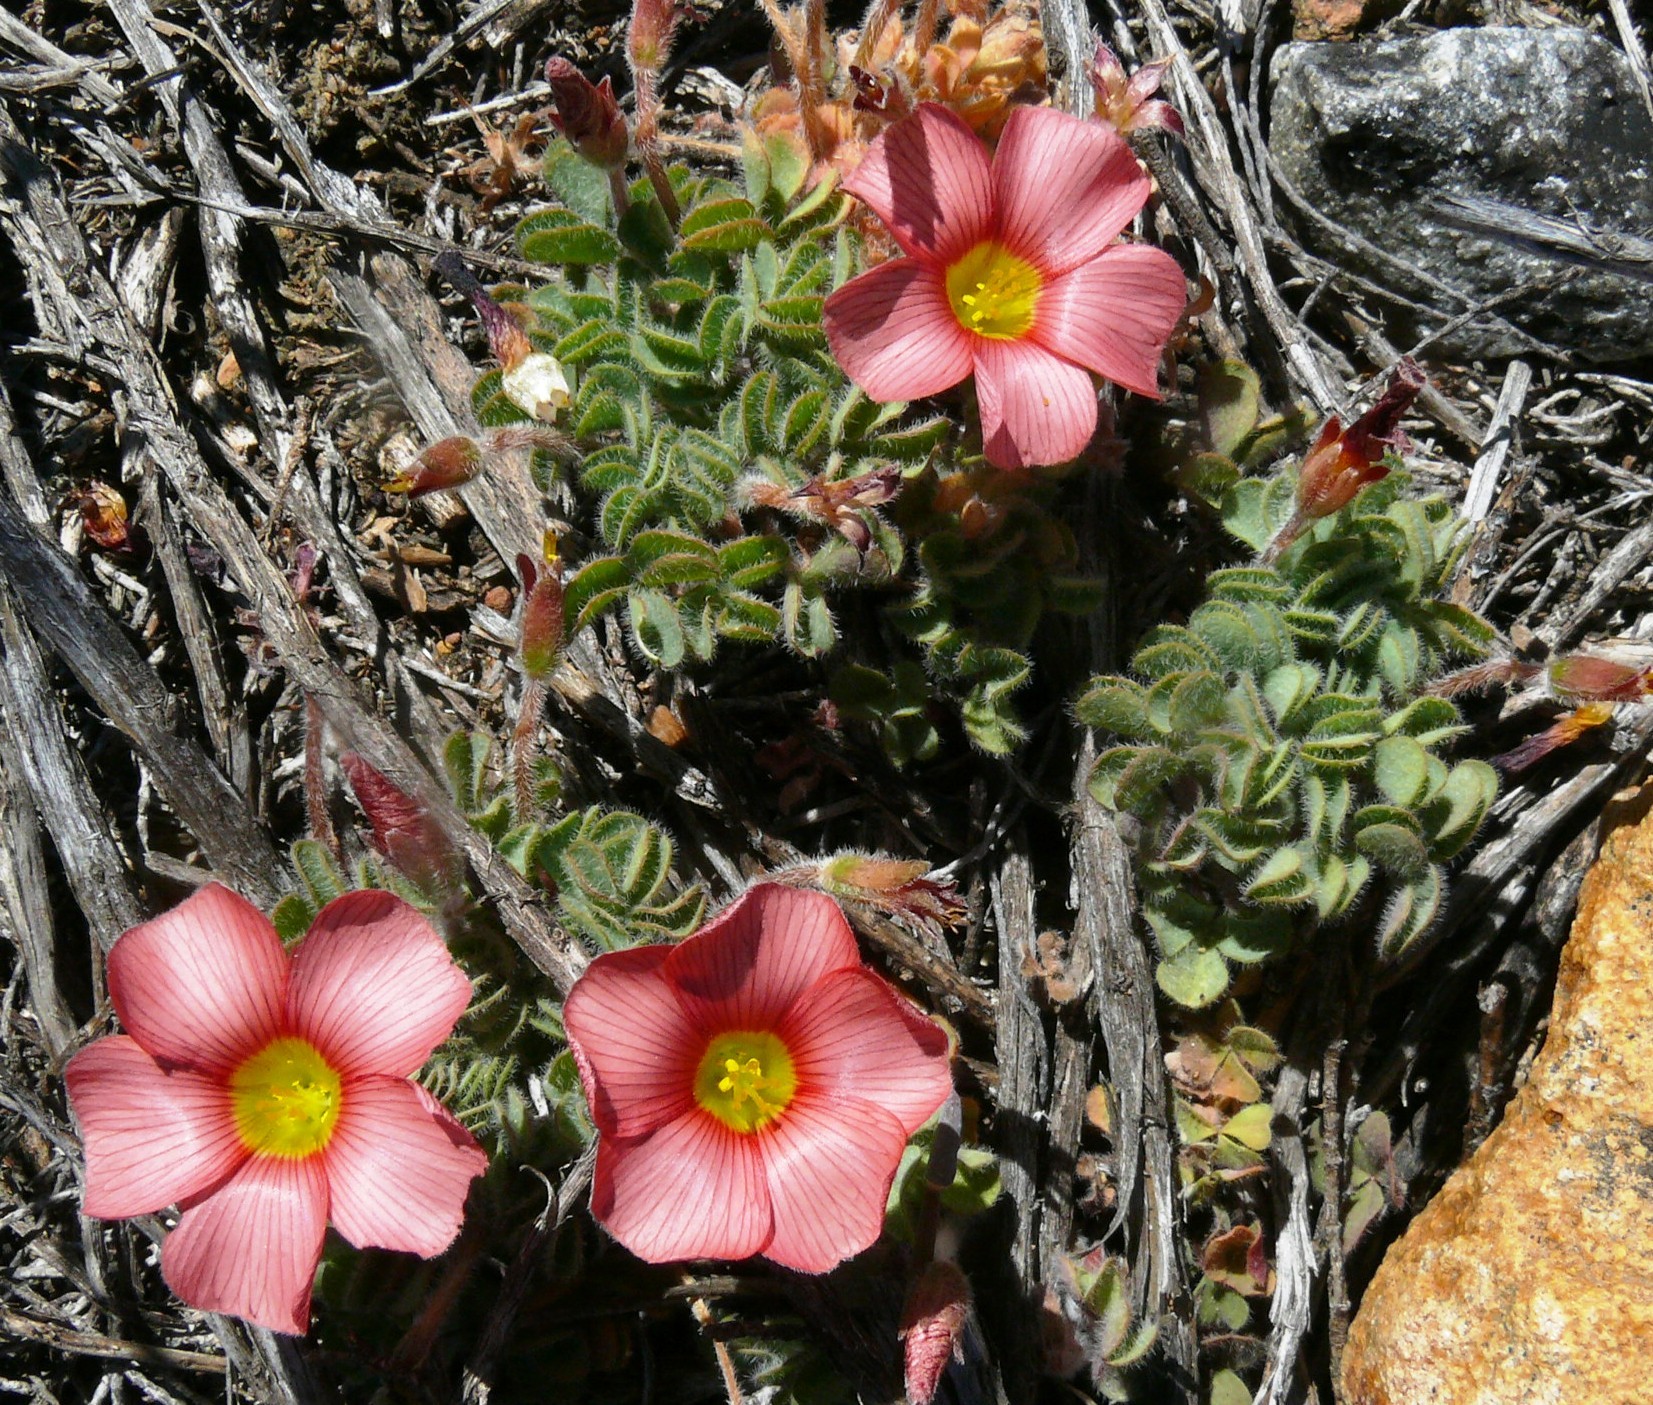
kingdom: Plantae
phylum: Tracheophyta
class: Magnoliopsida
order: Oxalidales
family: Oxalidaceae
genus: Oxalis
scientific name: Oxalis obtusa
